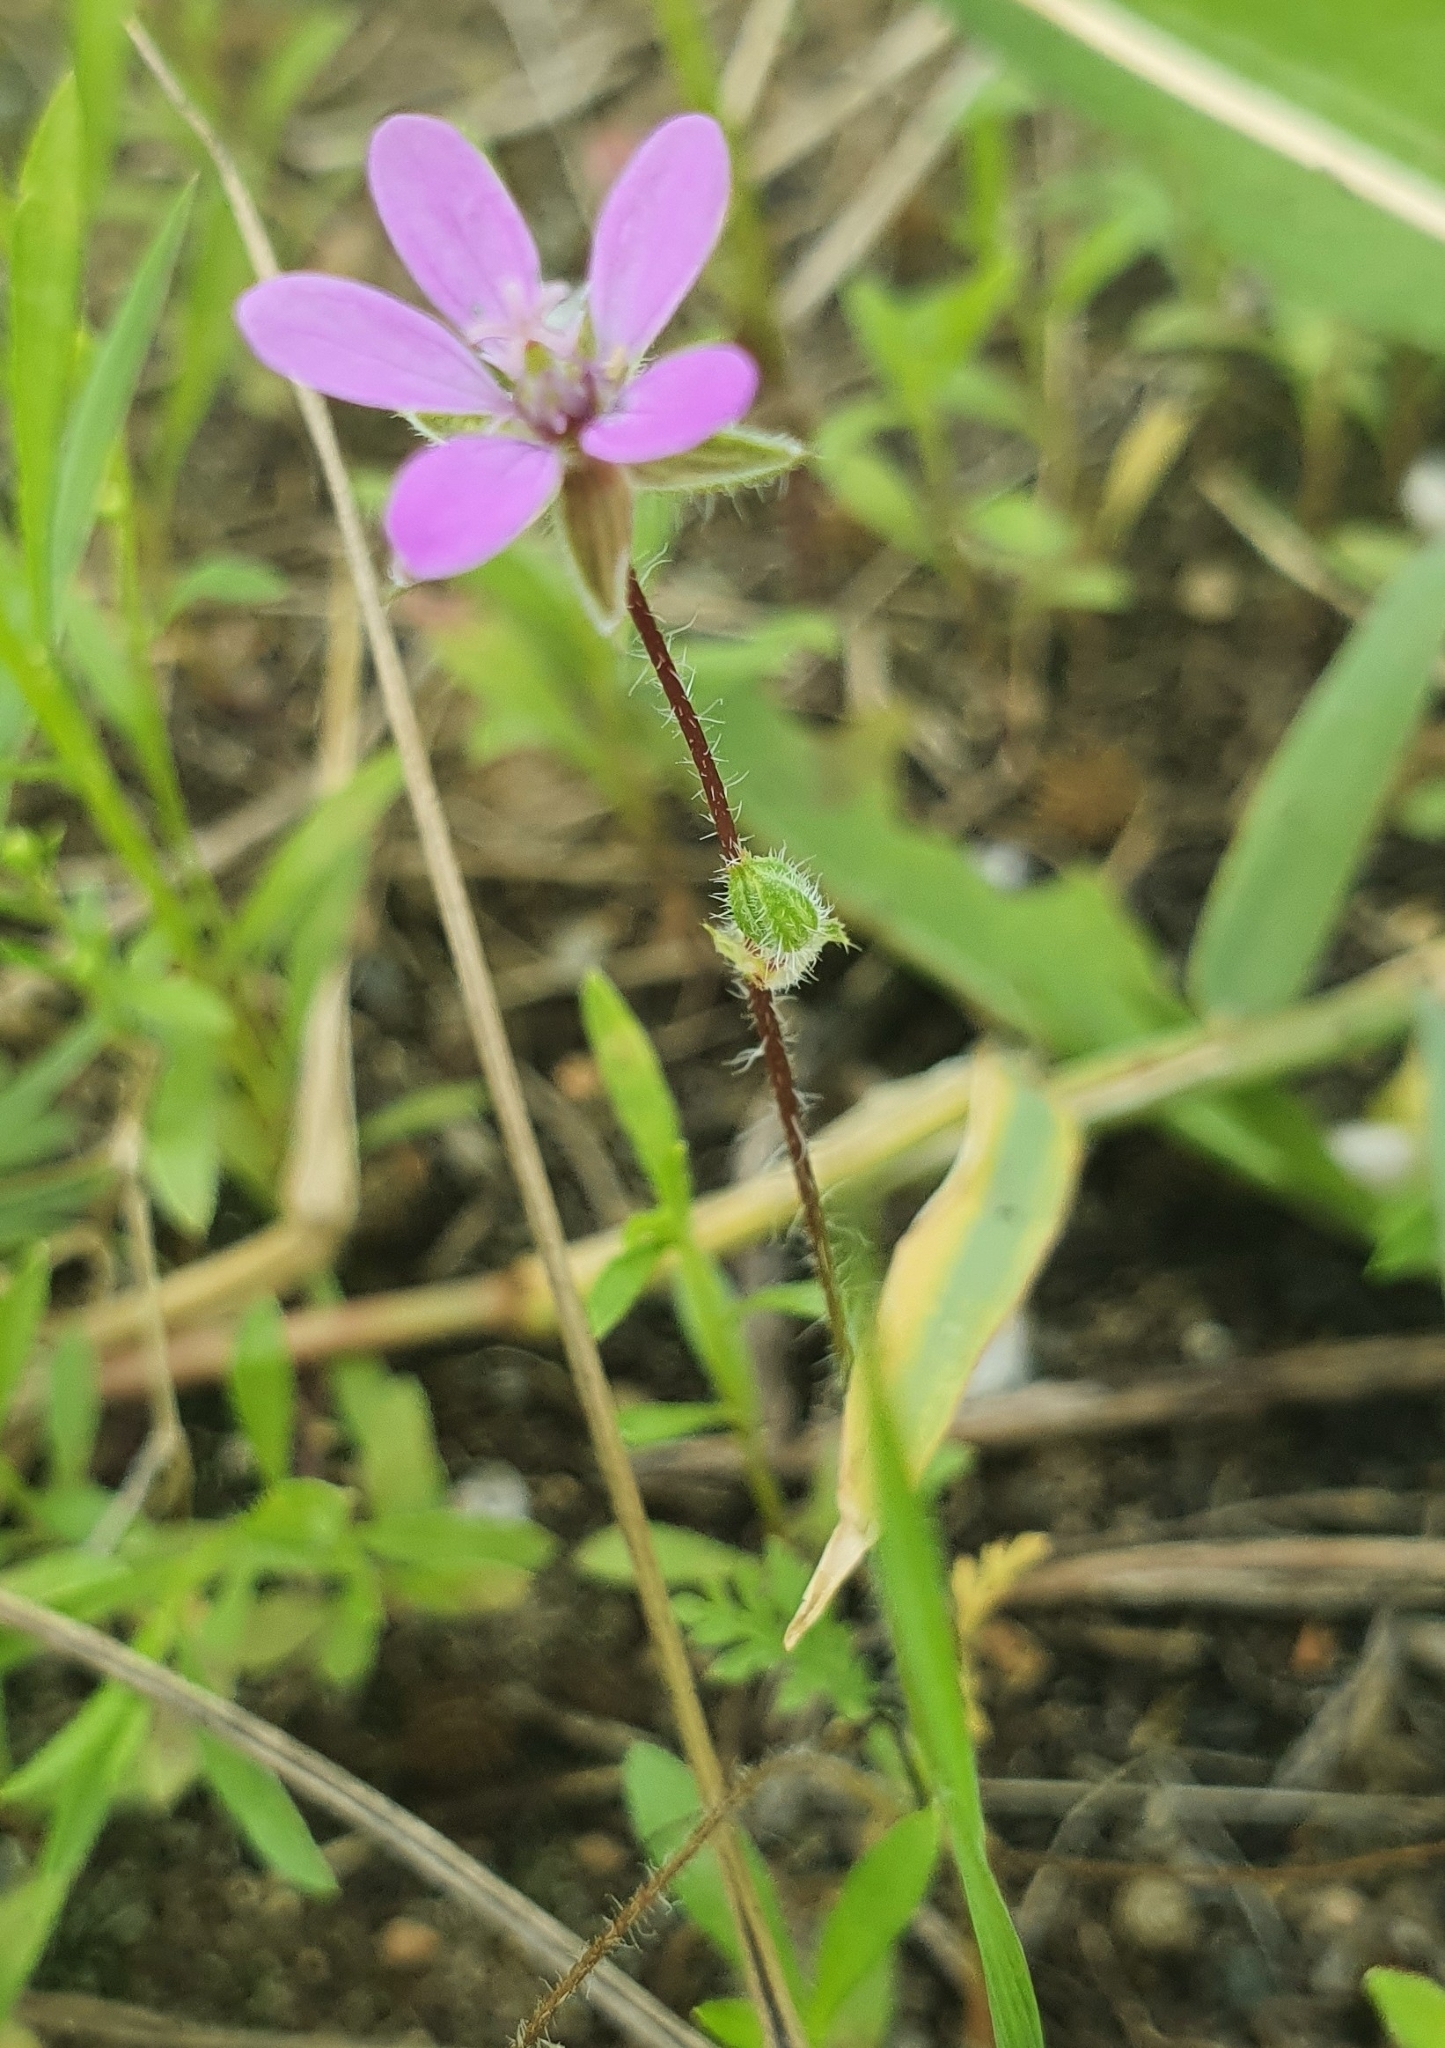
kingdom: Plantae
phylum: Tracheophyta
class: Magnoliopsida
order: Geraniales
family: Geraniaceae
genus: Erodium
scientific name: Erodium cicutarium
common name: Common stork's-bill
